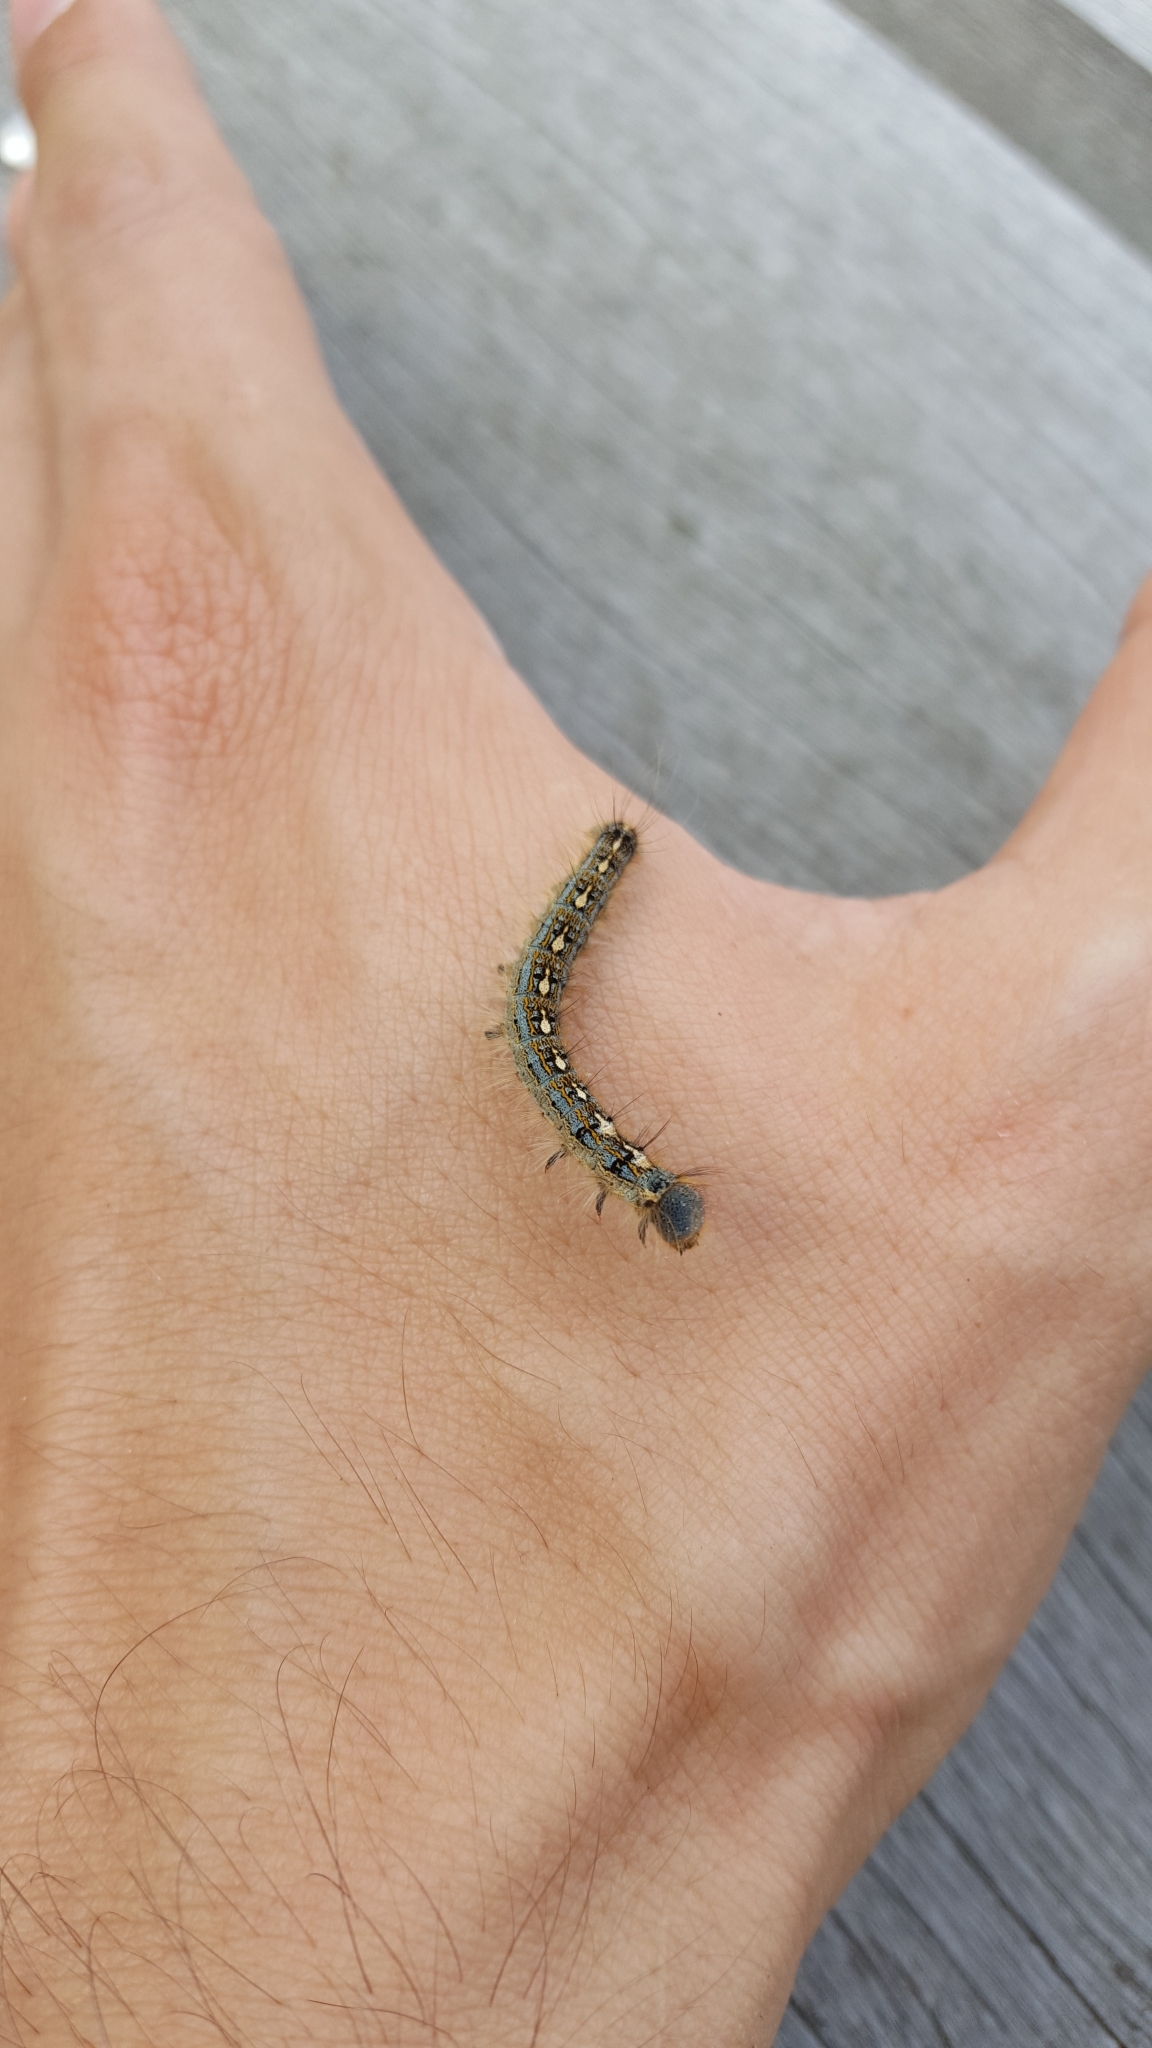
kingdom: Animalia
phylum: Arthropoda
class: Insecta
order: Lepidoptera
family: Lasiocampidae
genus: Malacosoma
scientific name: Malacosoma disstria
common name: Forest tent caterpillar
